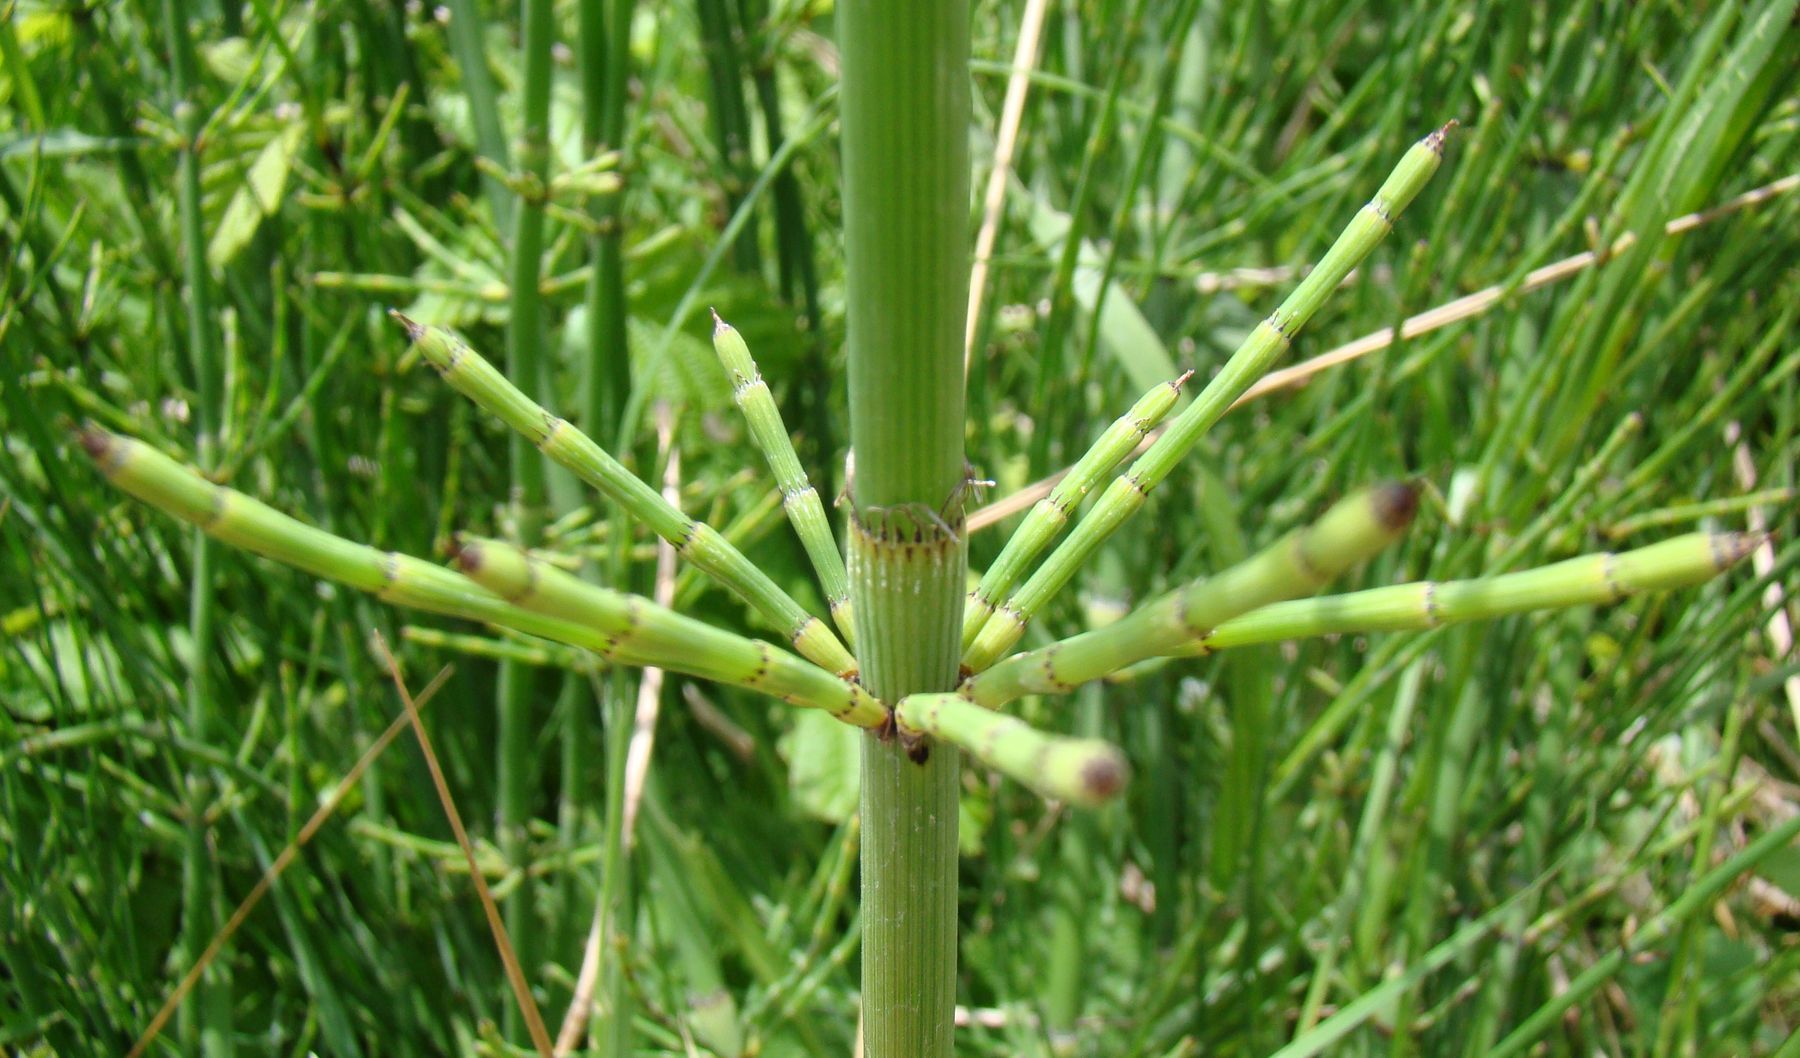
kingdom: Plantae
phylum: Tracheophyta
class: Polypodiopsida
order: Equisetales
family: Equisetaceae
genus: Equisetum
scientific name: Equisetum ramosissimum
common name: Branched horsetail
